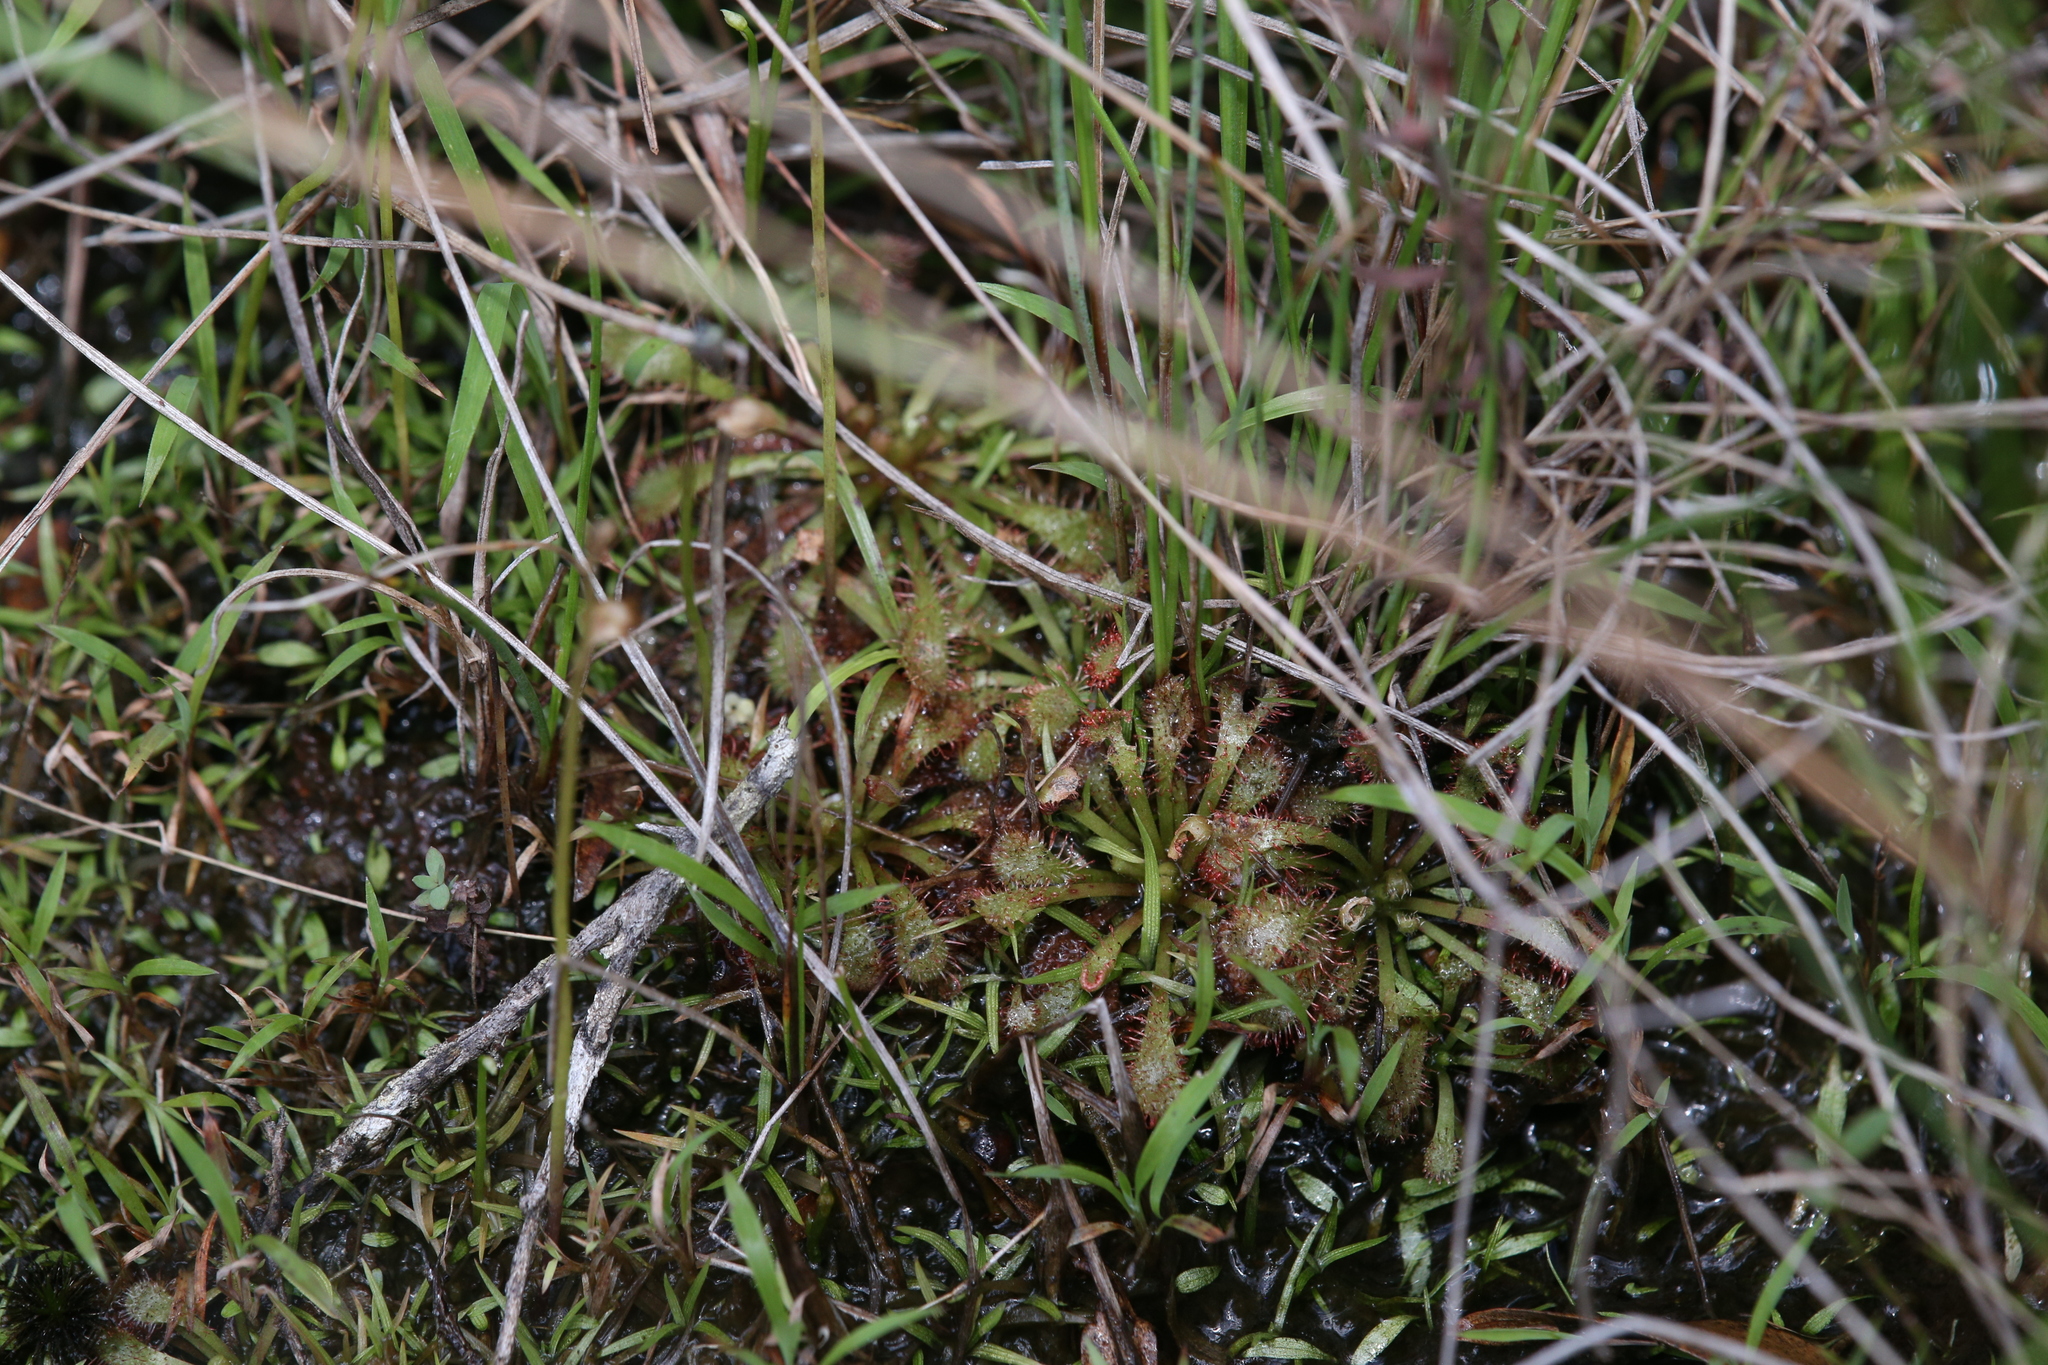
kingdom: Plantae
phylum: Tracheophyta
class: Magnoliopsida
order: Caryophyllales
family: Droseraceae
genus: Drosera
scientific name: Drosera spatulata
